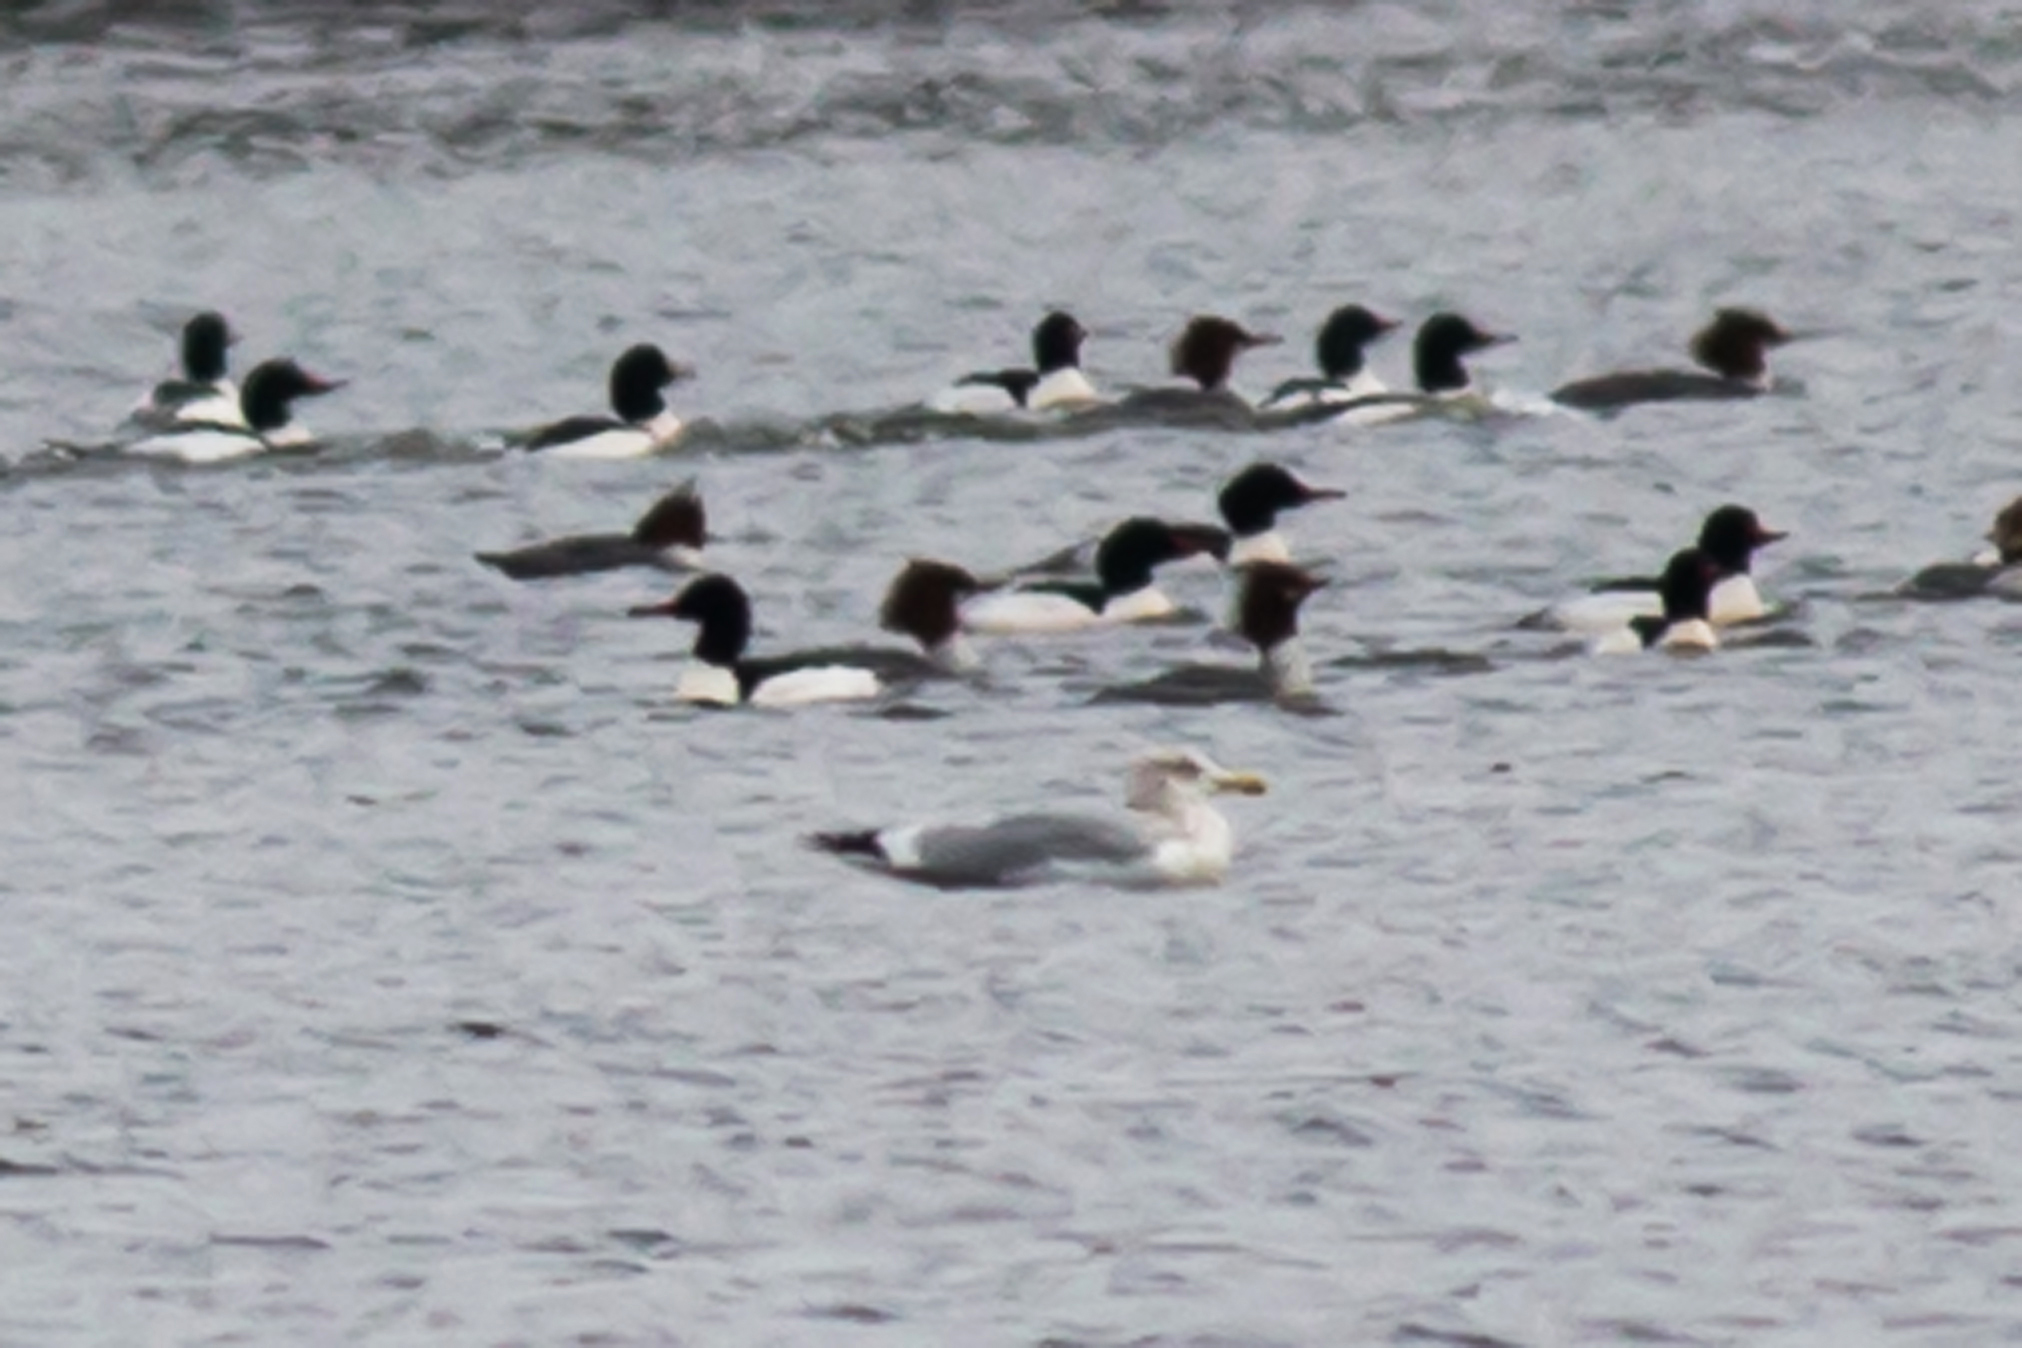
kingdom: Animalia
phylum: Chordata
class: Aves
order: Charadriiformes
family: Laridae
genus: Larus
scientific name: Larus argentatus
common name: Herring gull
